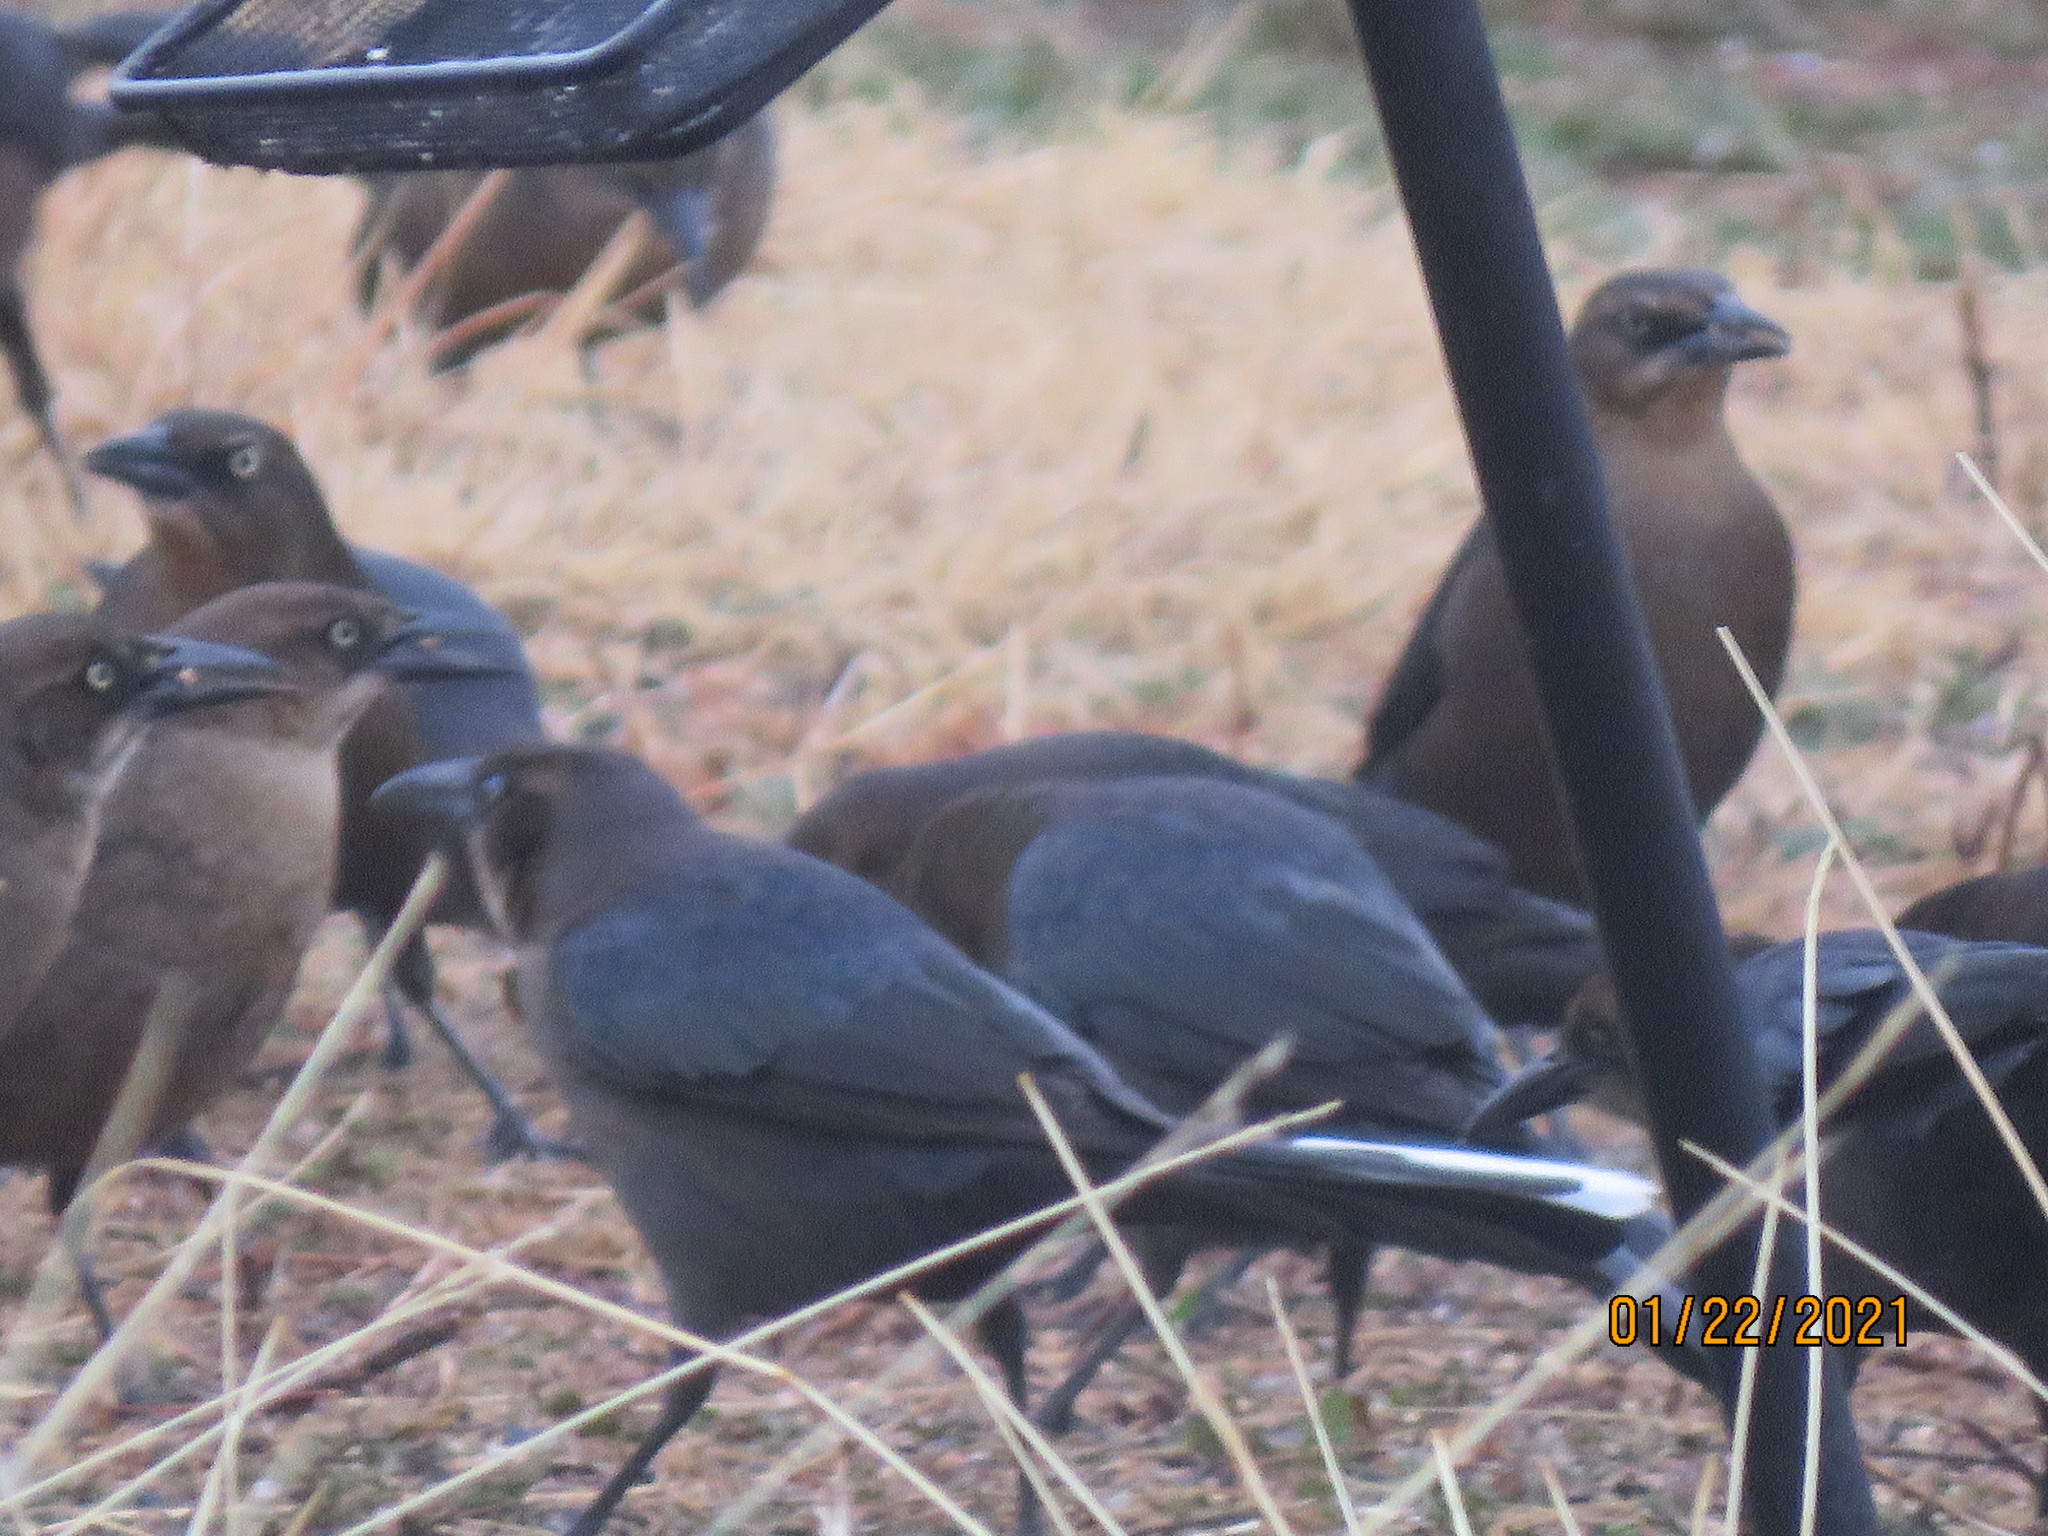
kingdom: Animalia
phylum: Chordata
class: Aves
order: Passeriformes
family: Icteridae
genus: Quiscalus
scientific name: Quiscalus mexicanus
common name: Great-tailed grackle
